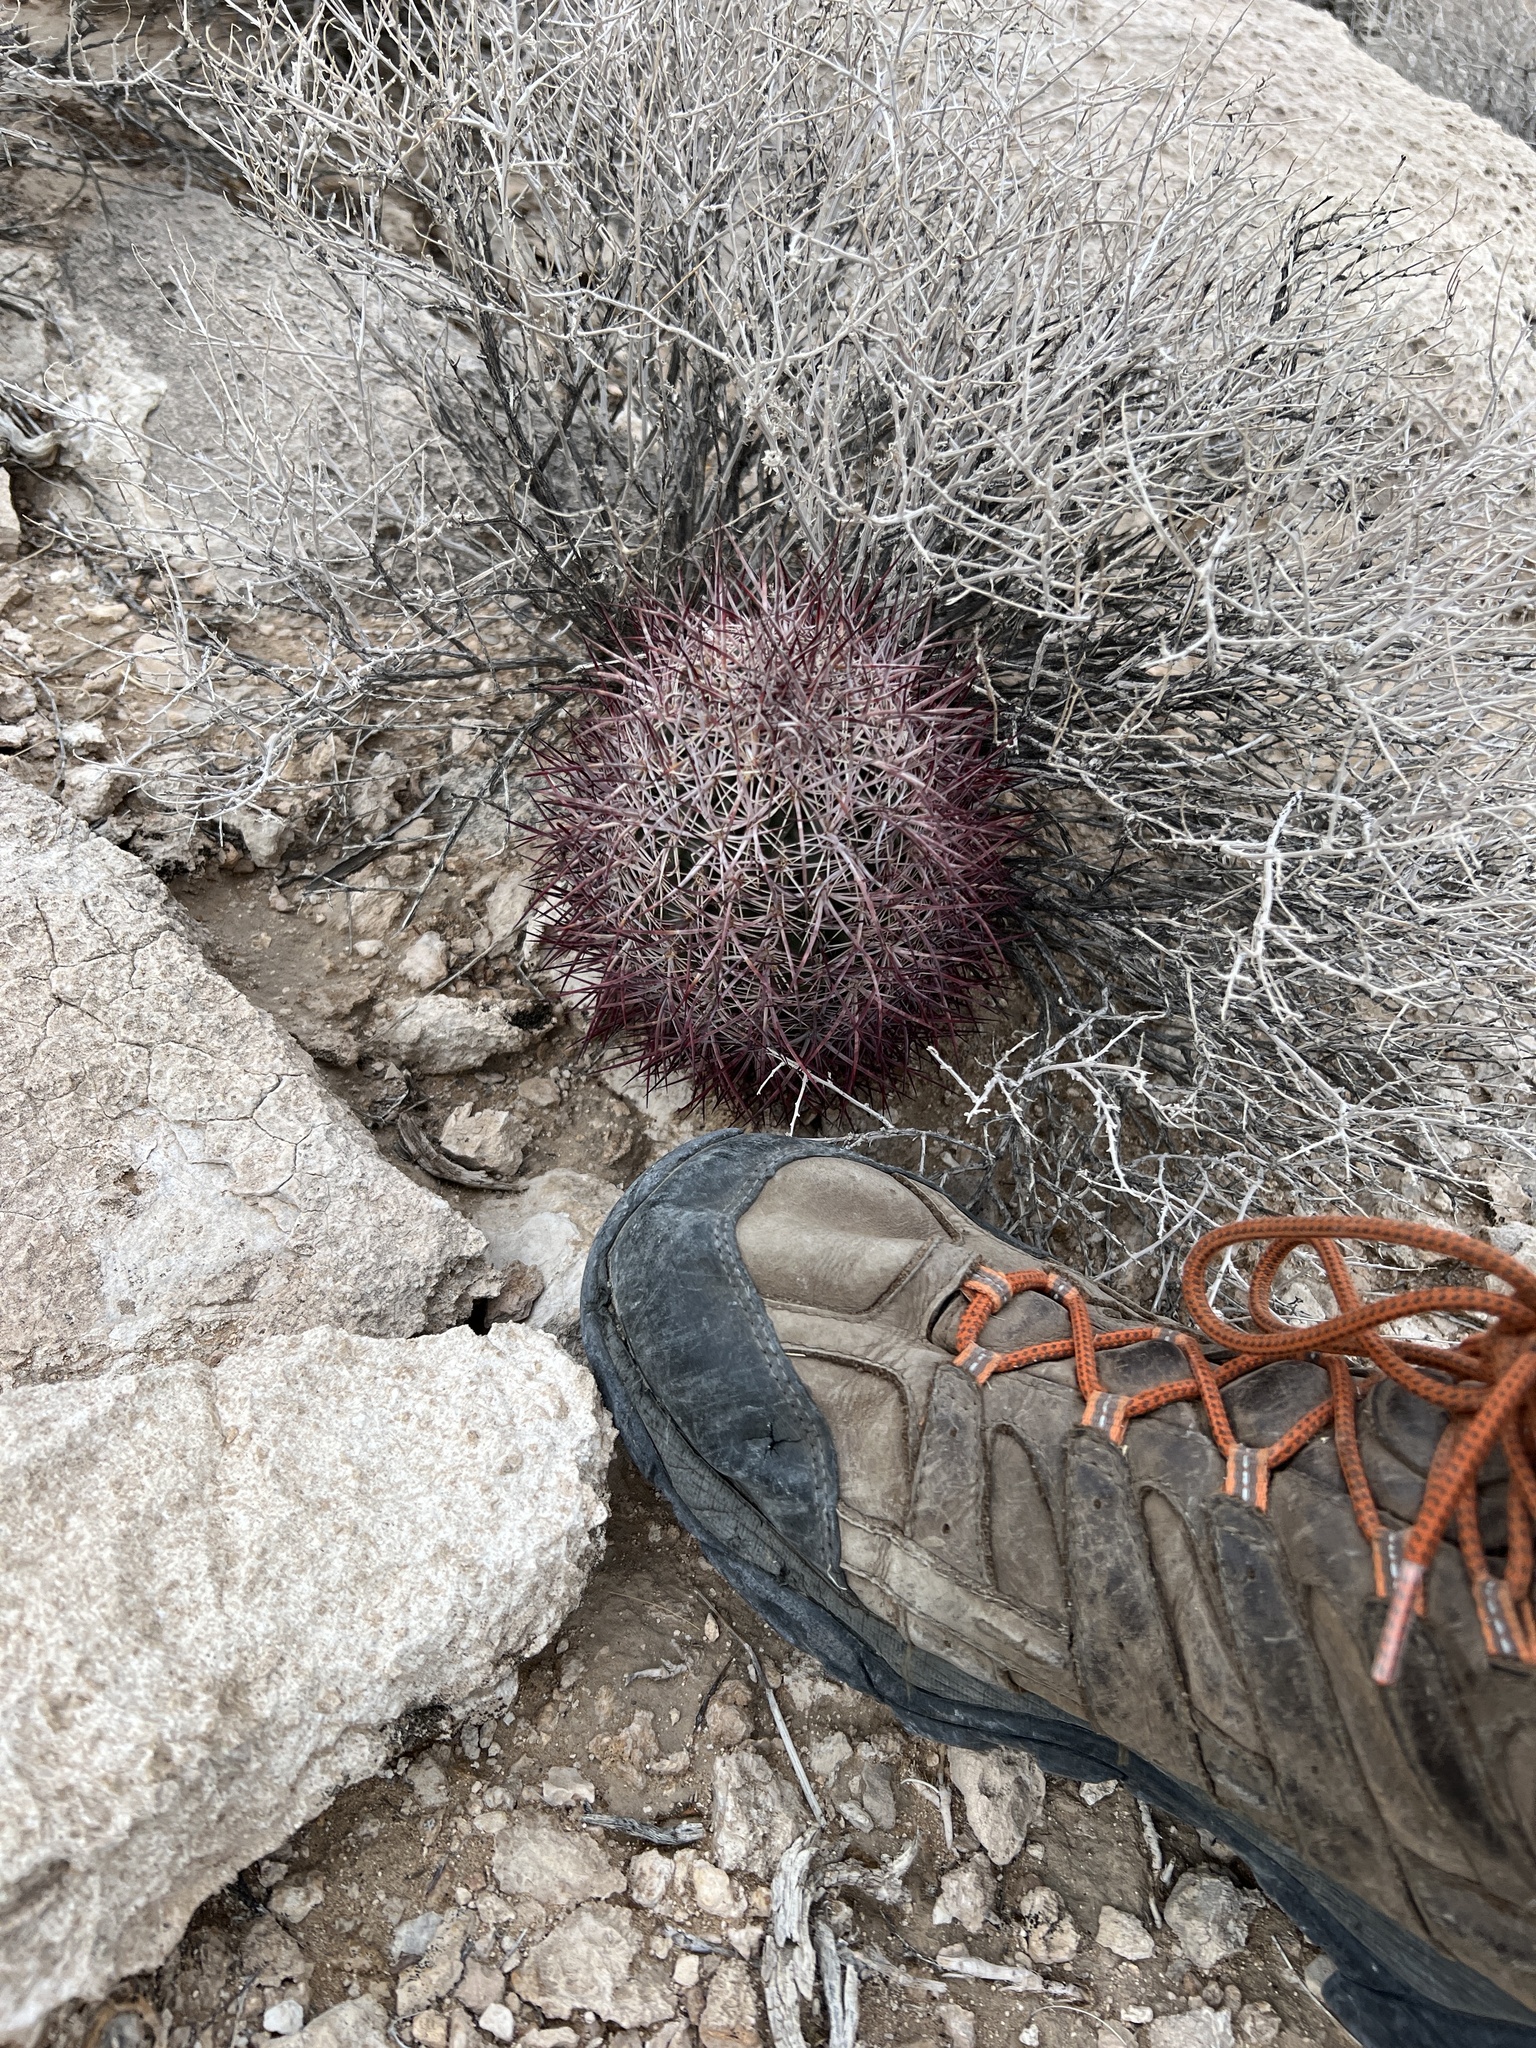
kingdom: Plantae
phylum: Tracheophyta
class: Magnoliopsida
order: Caryophyllales
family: Cactaceae
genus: Sclerocactus
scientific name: Sclerocactus johnsonii
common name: Eight-spine fishhook cactus
